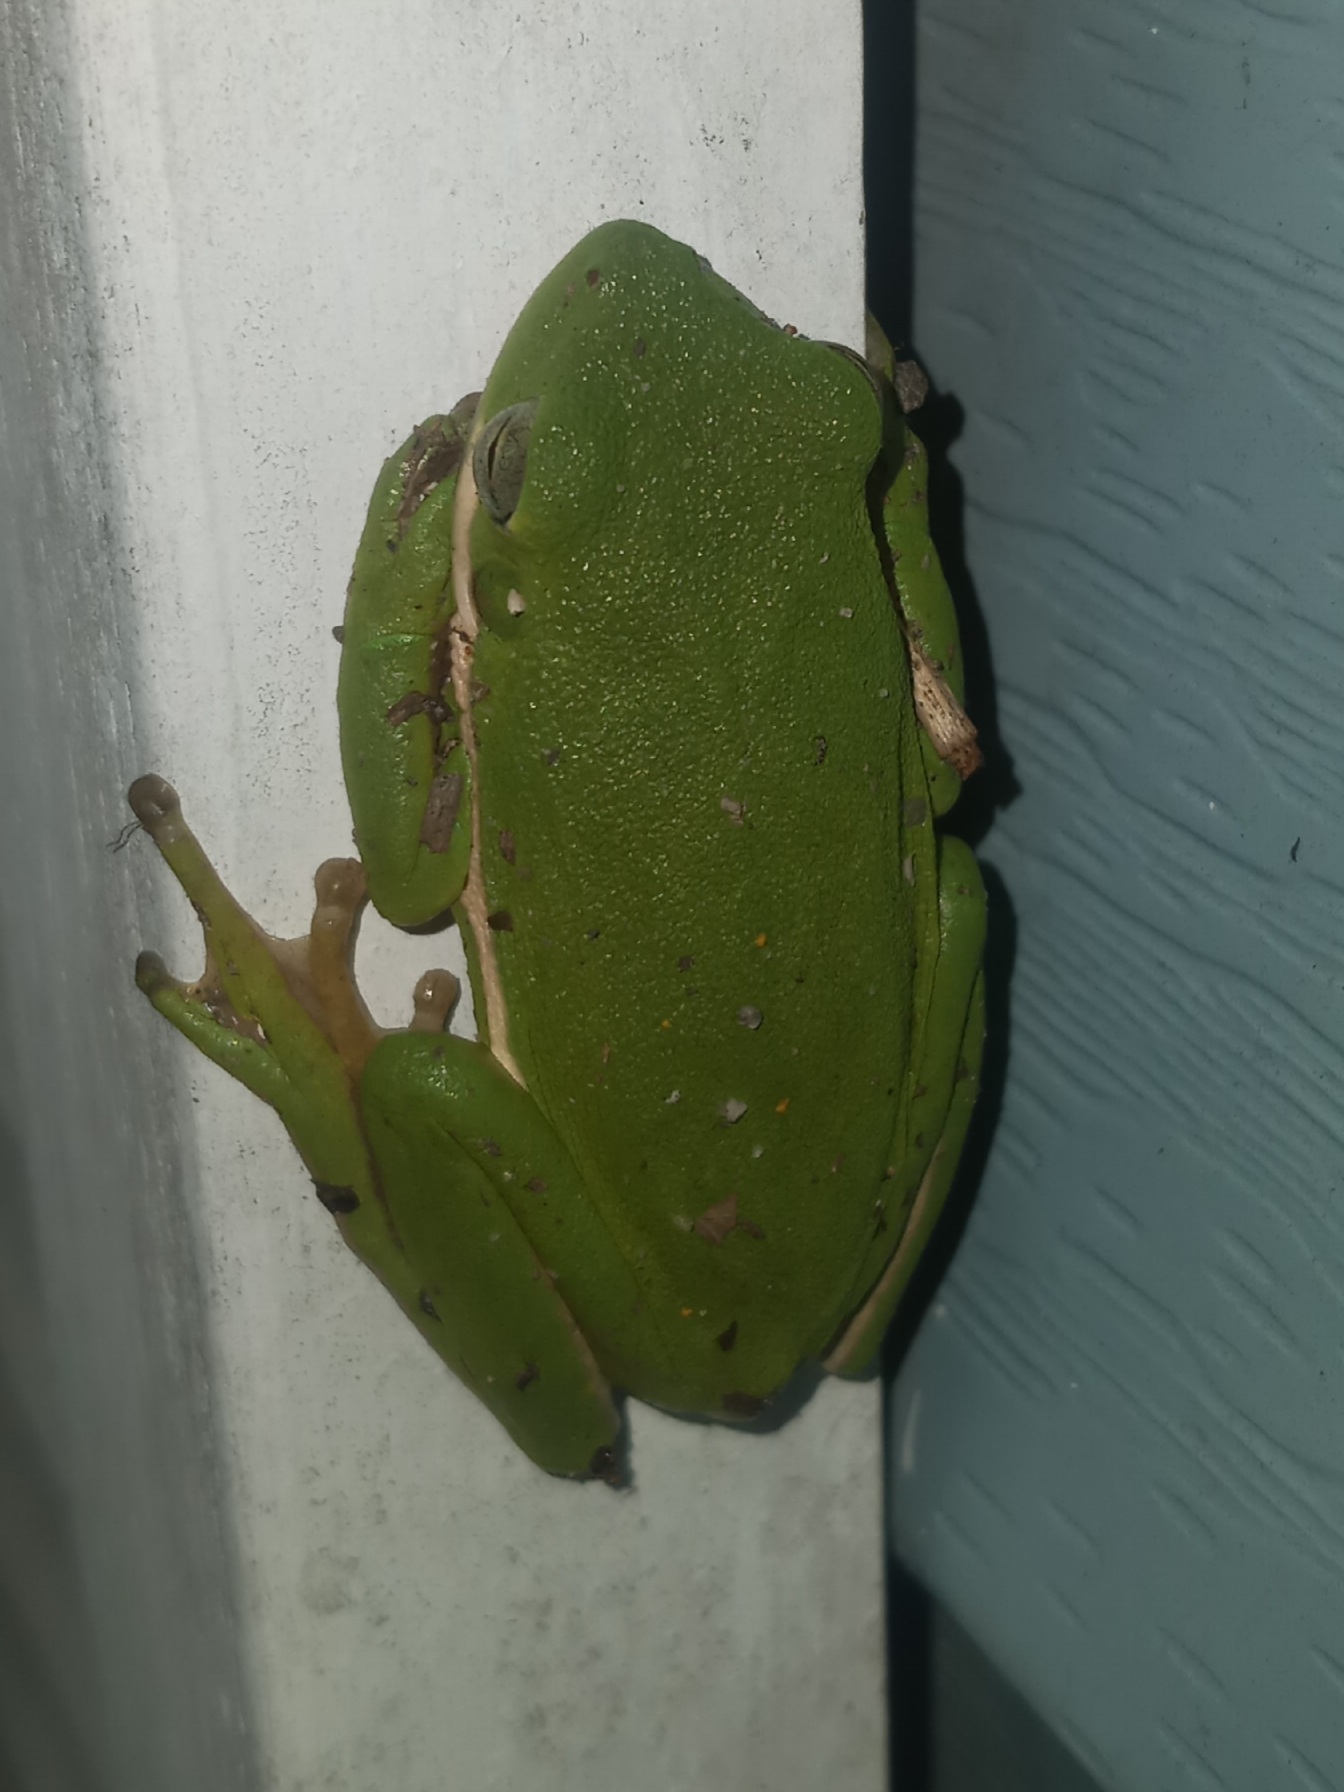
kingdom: Animalia
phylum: Chordata
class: Amphibia
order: Anura
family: Hylidae
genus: Dryophytes
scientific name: Dryophytes cinereus
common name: Green treefrog
